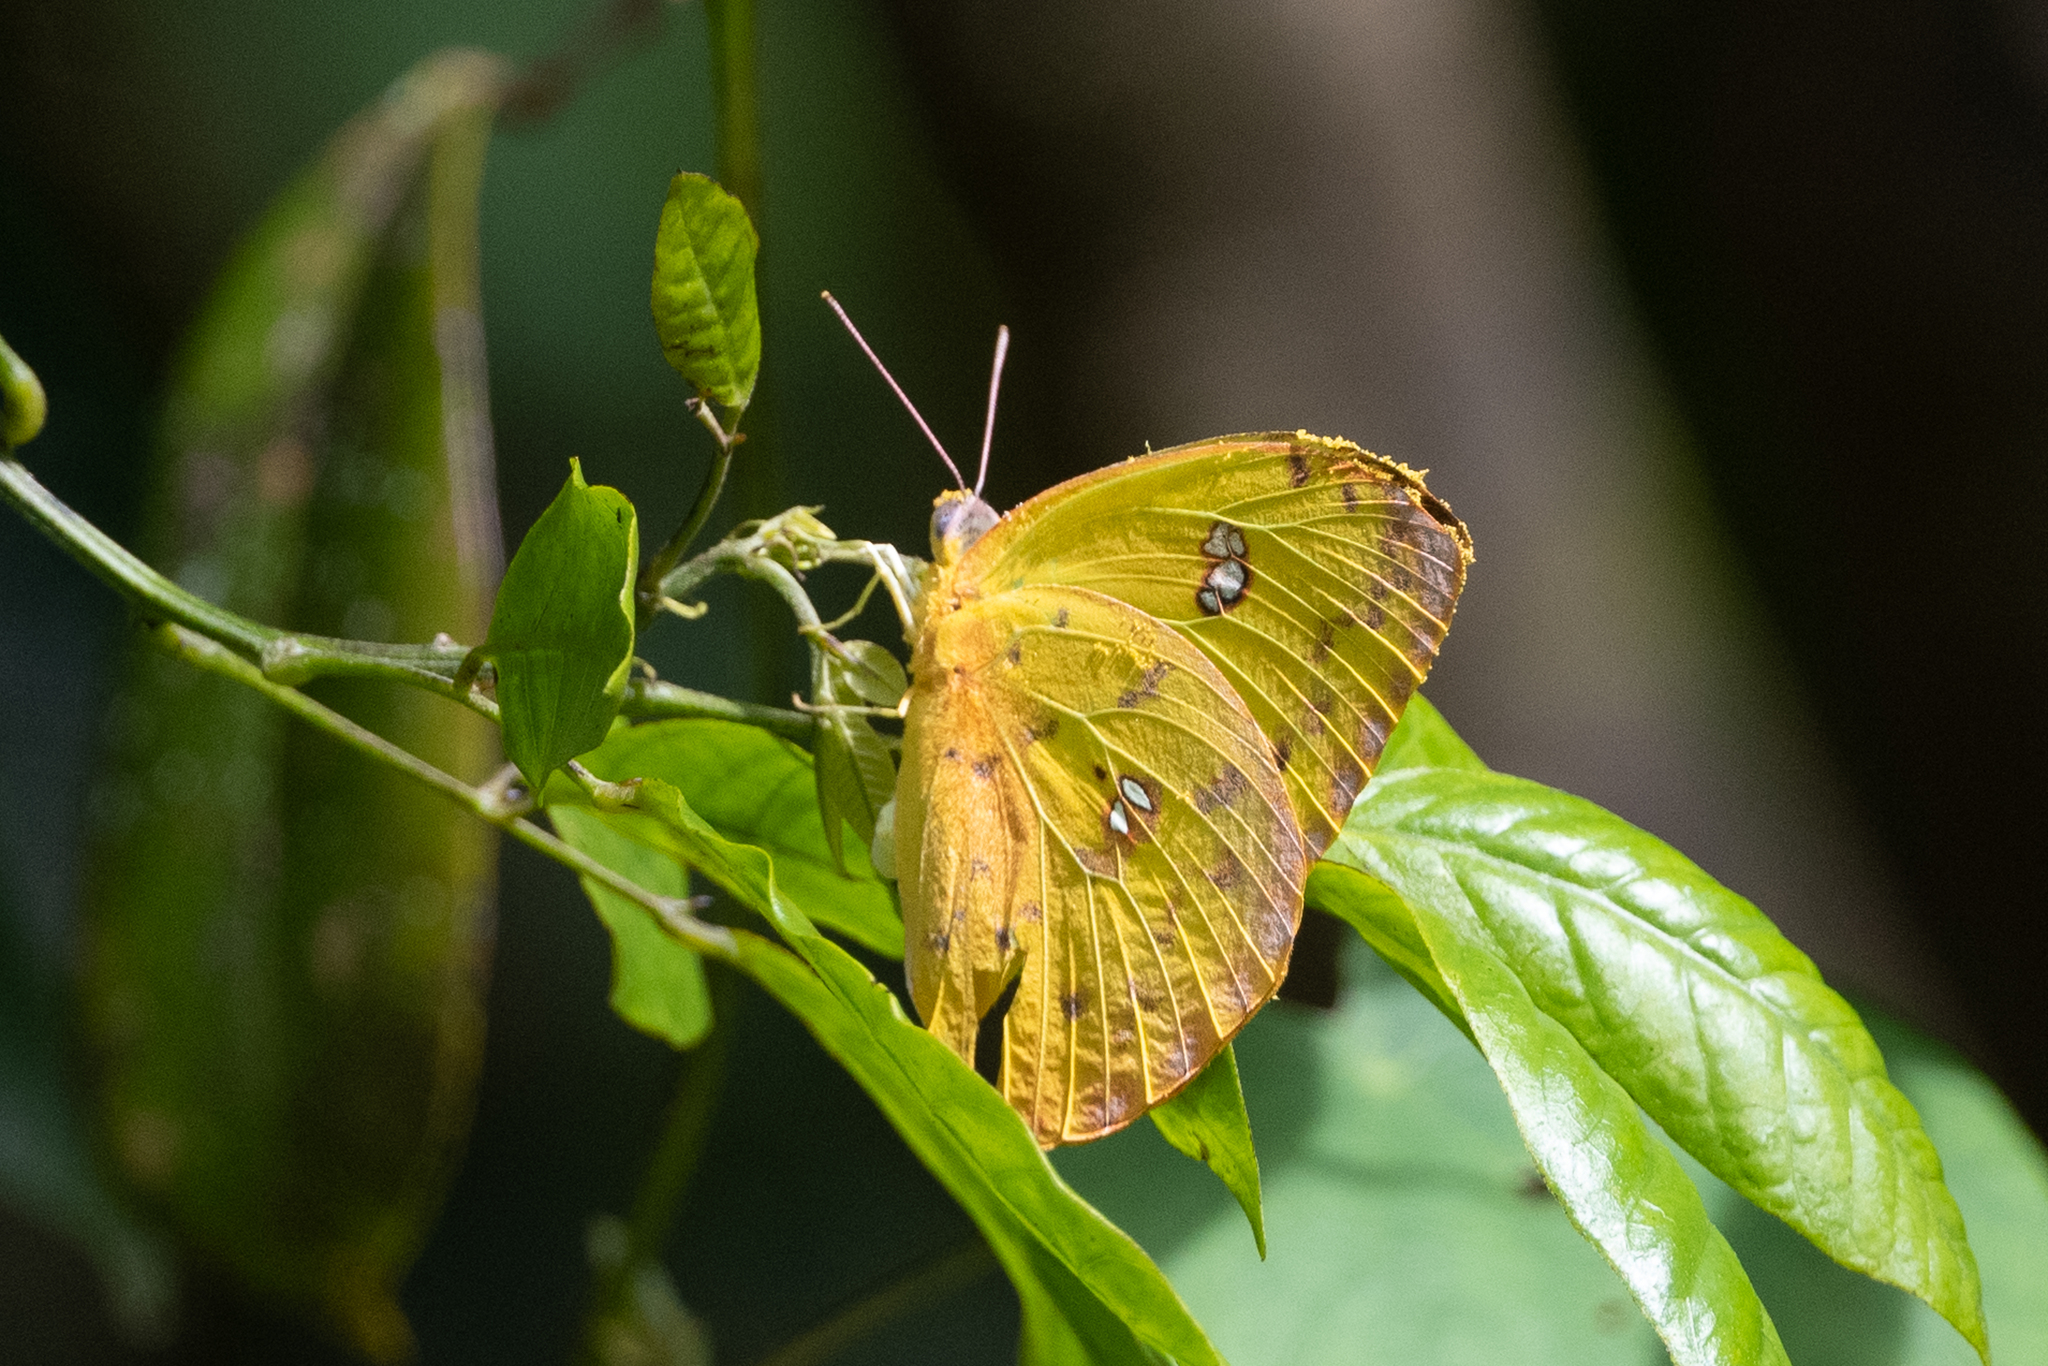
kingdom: Animalia
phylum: Arthropoda
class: Insecta
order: Lepidoptera
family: Pieridae
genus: Phoebis
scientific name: Phoebis philea
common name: Orange-barred giant sulphur
